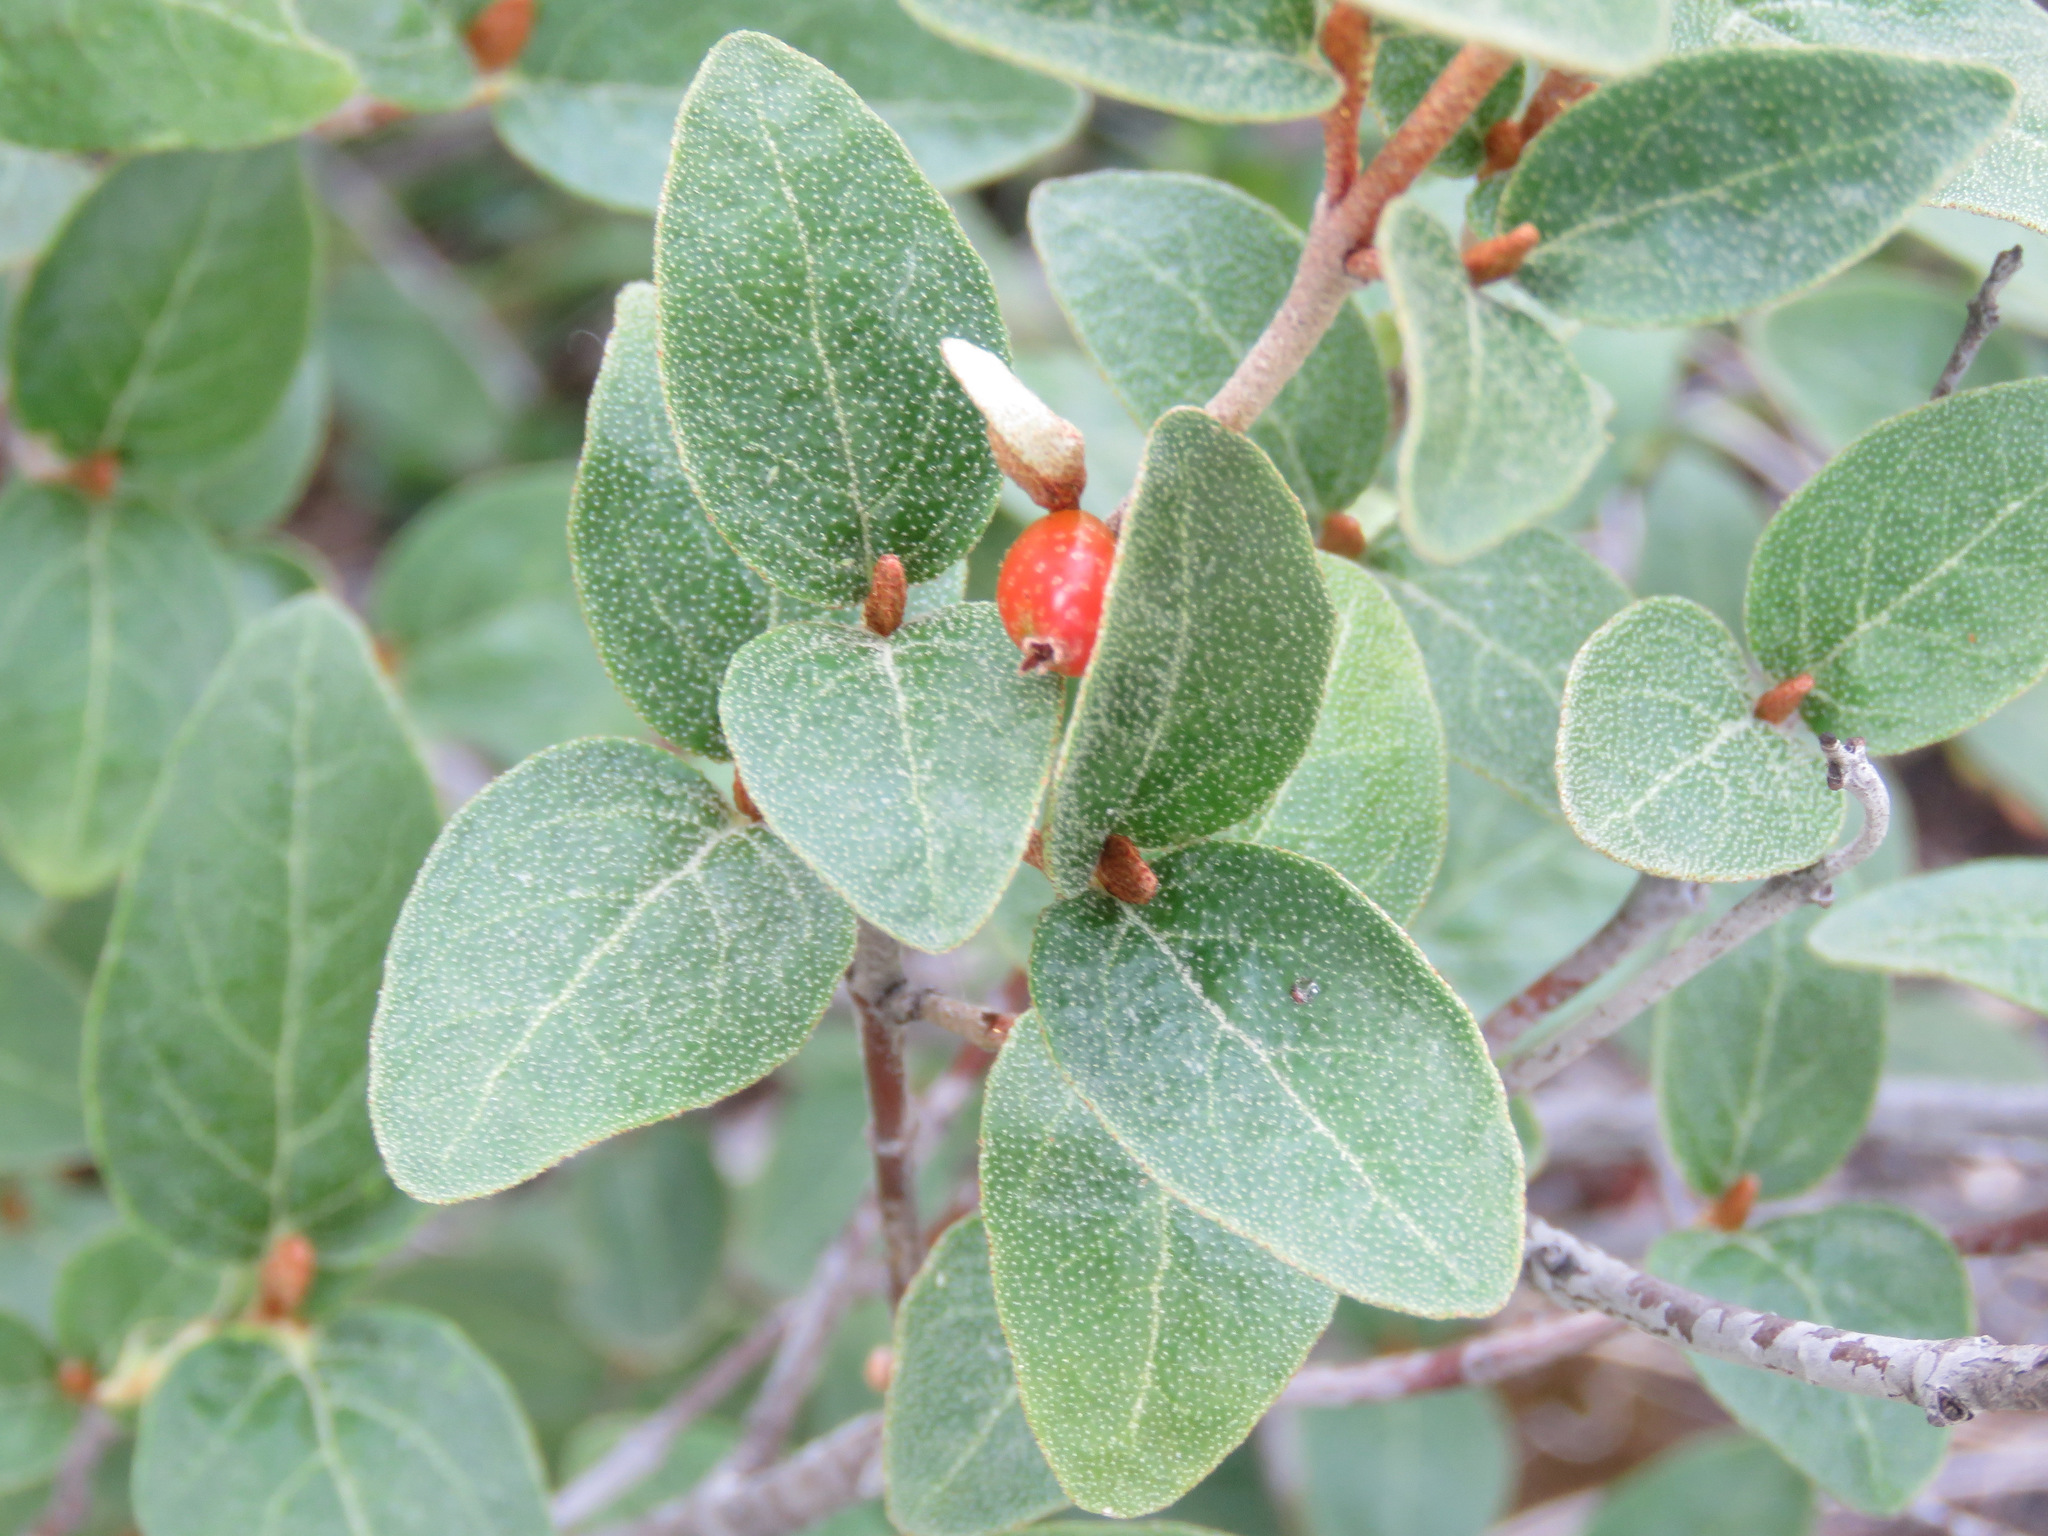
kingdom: Plantae
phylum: Tracheophyta
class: Magnoliopsida
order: Rosales
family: Elaeagnaceae
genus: Shepherdia
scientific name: Shepherdia canadensis
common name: Soapberry
